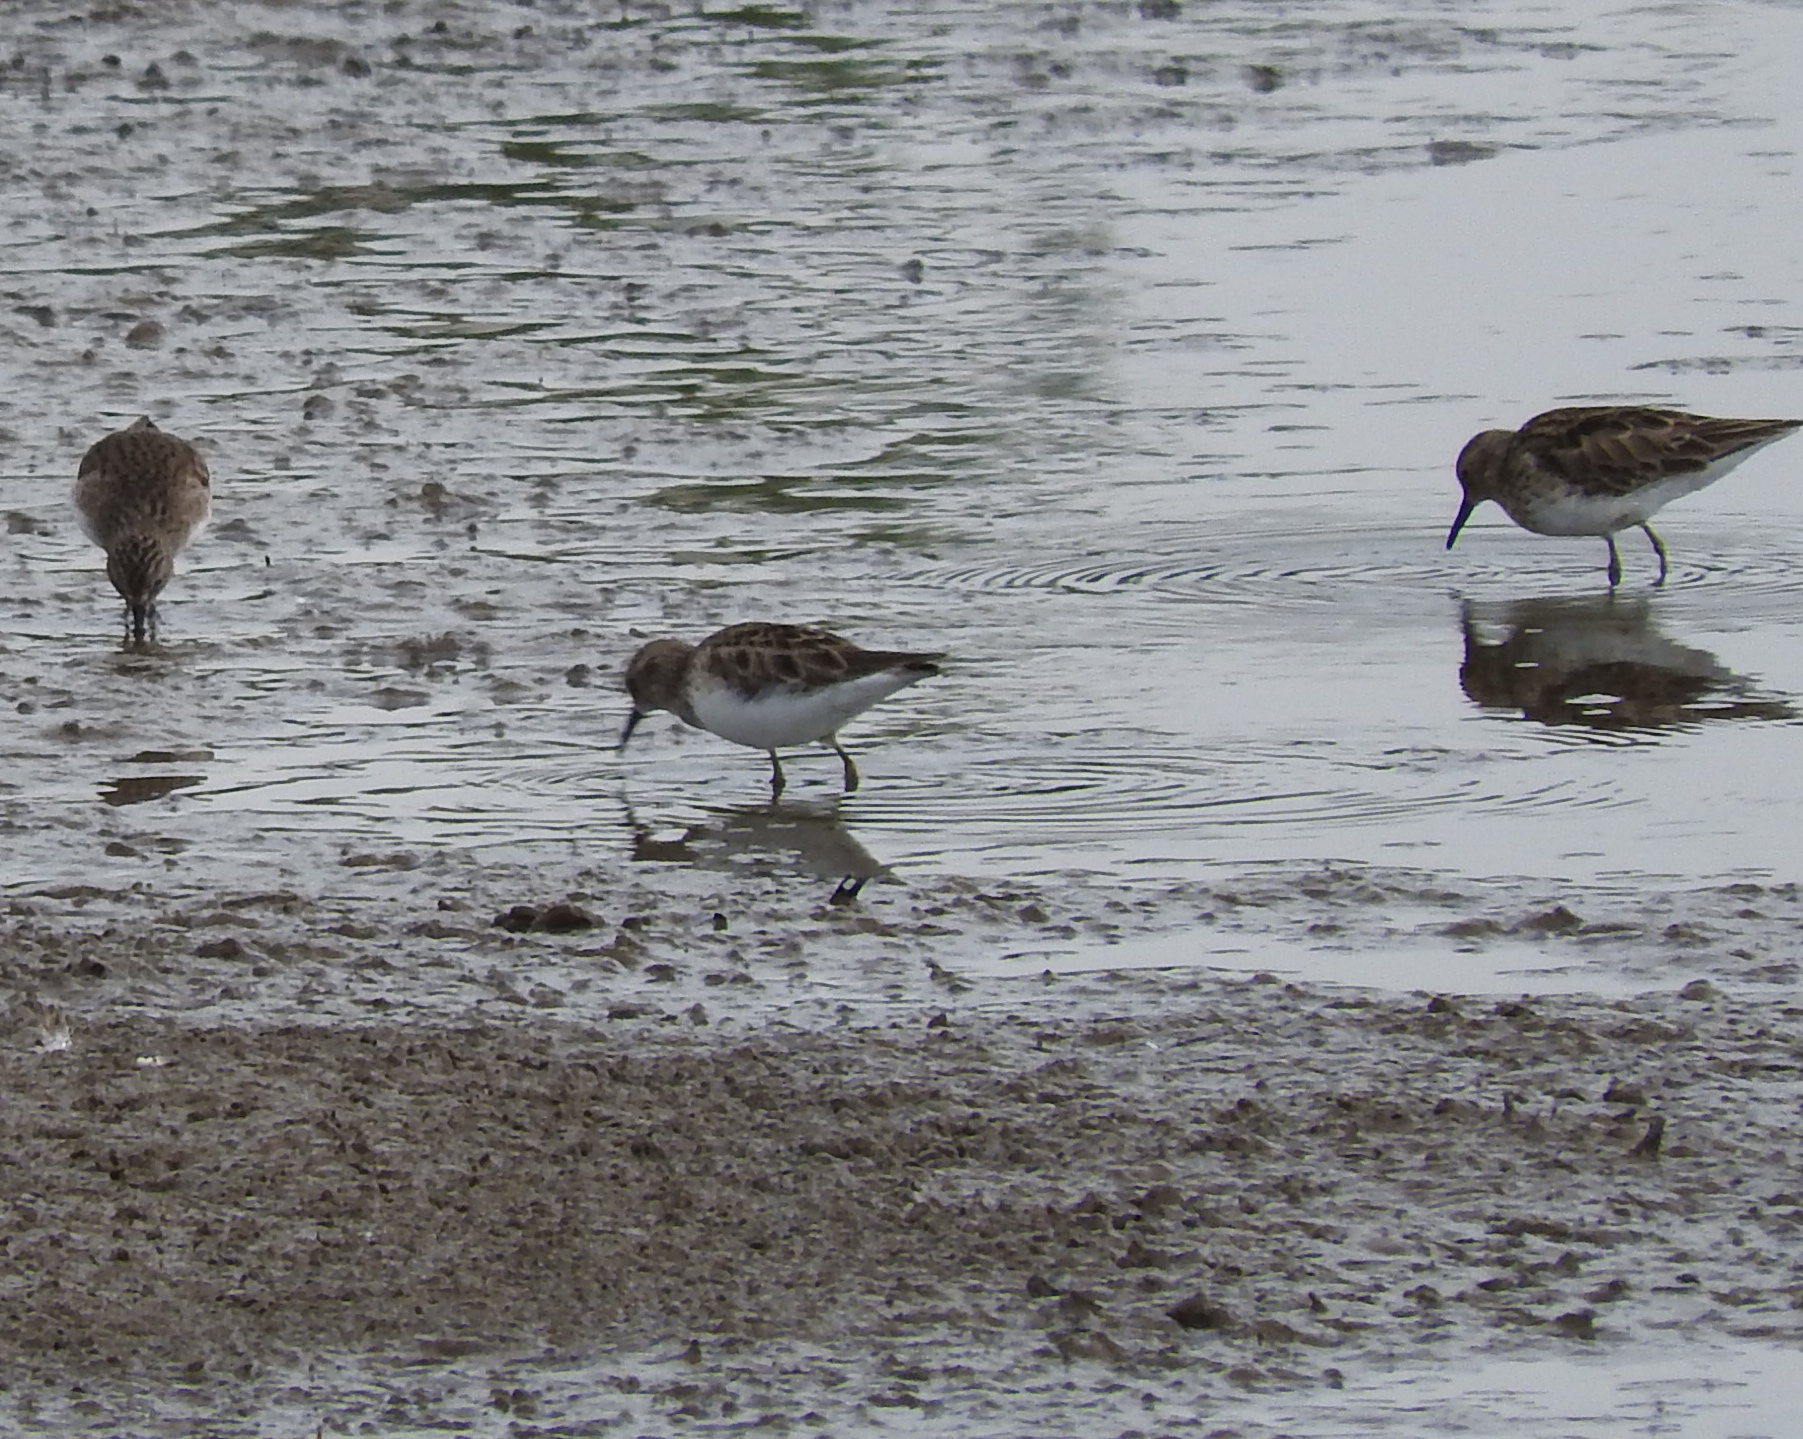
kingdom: Animalia
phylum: Chordata
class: Aves
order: Charadriiformes
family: Scolopacidae
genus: Calidris
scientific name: Calidris minutilla
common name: Least sandpiper
